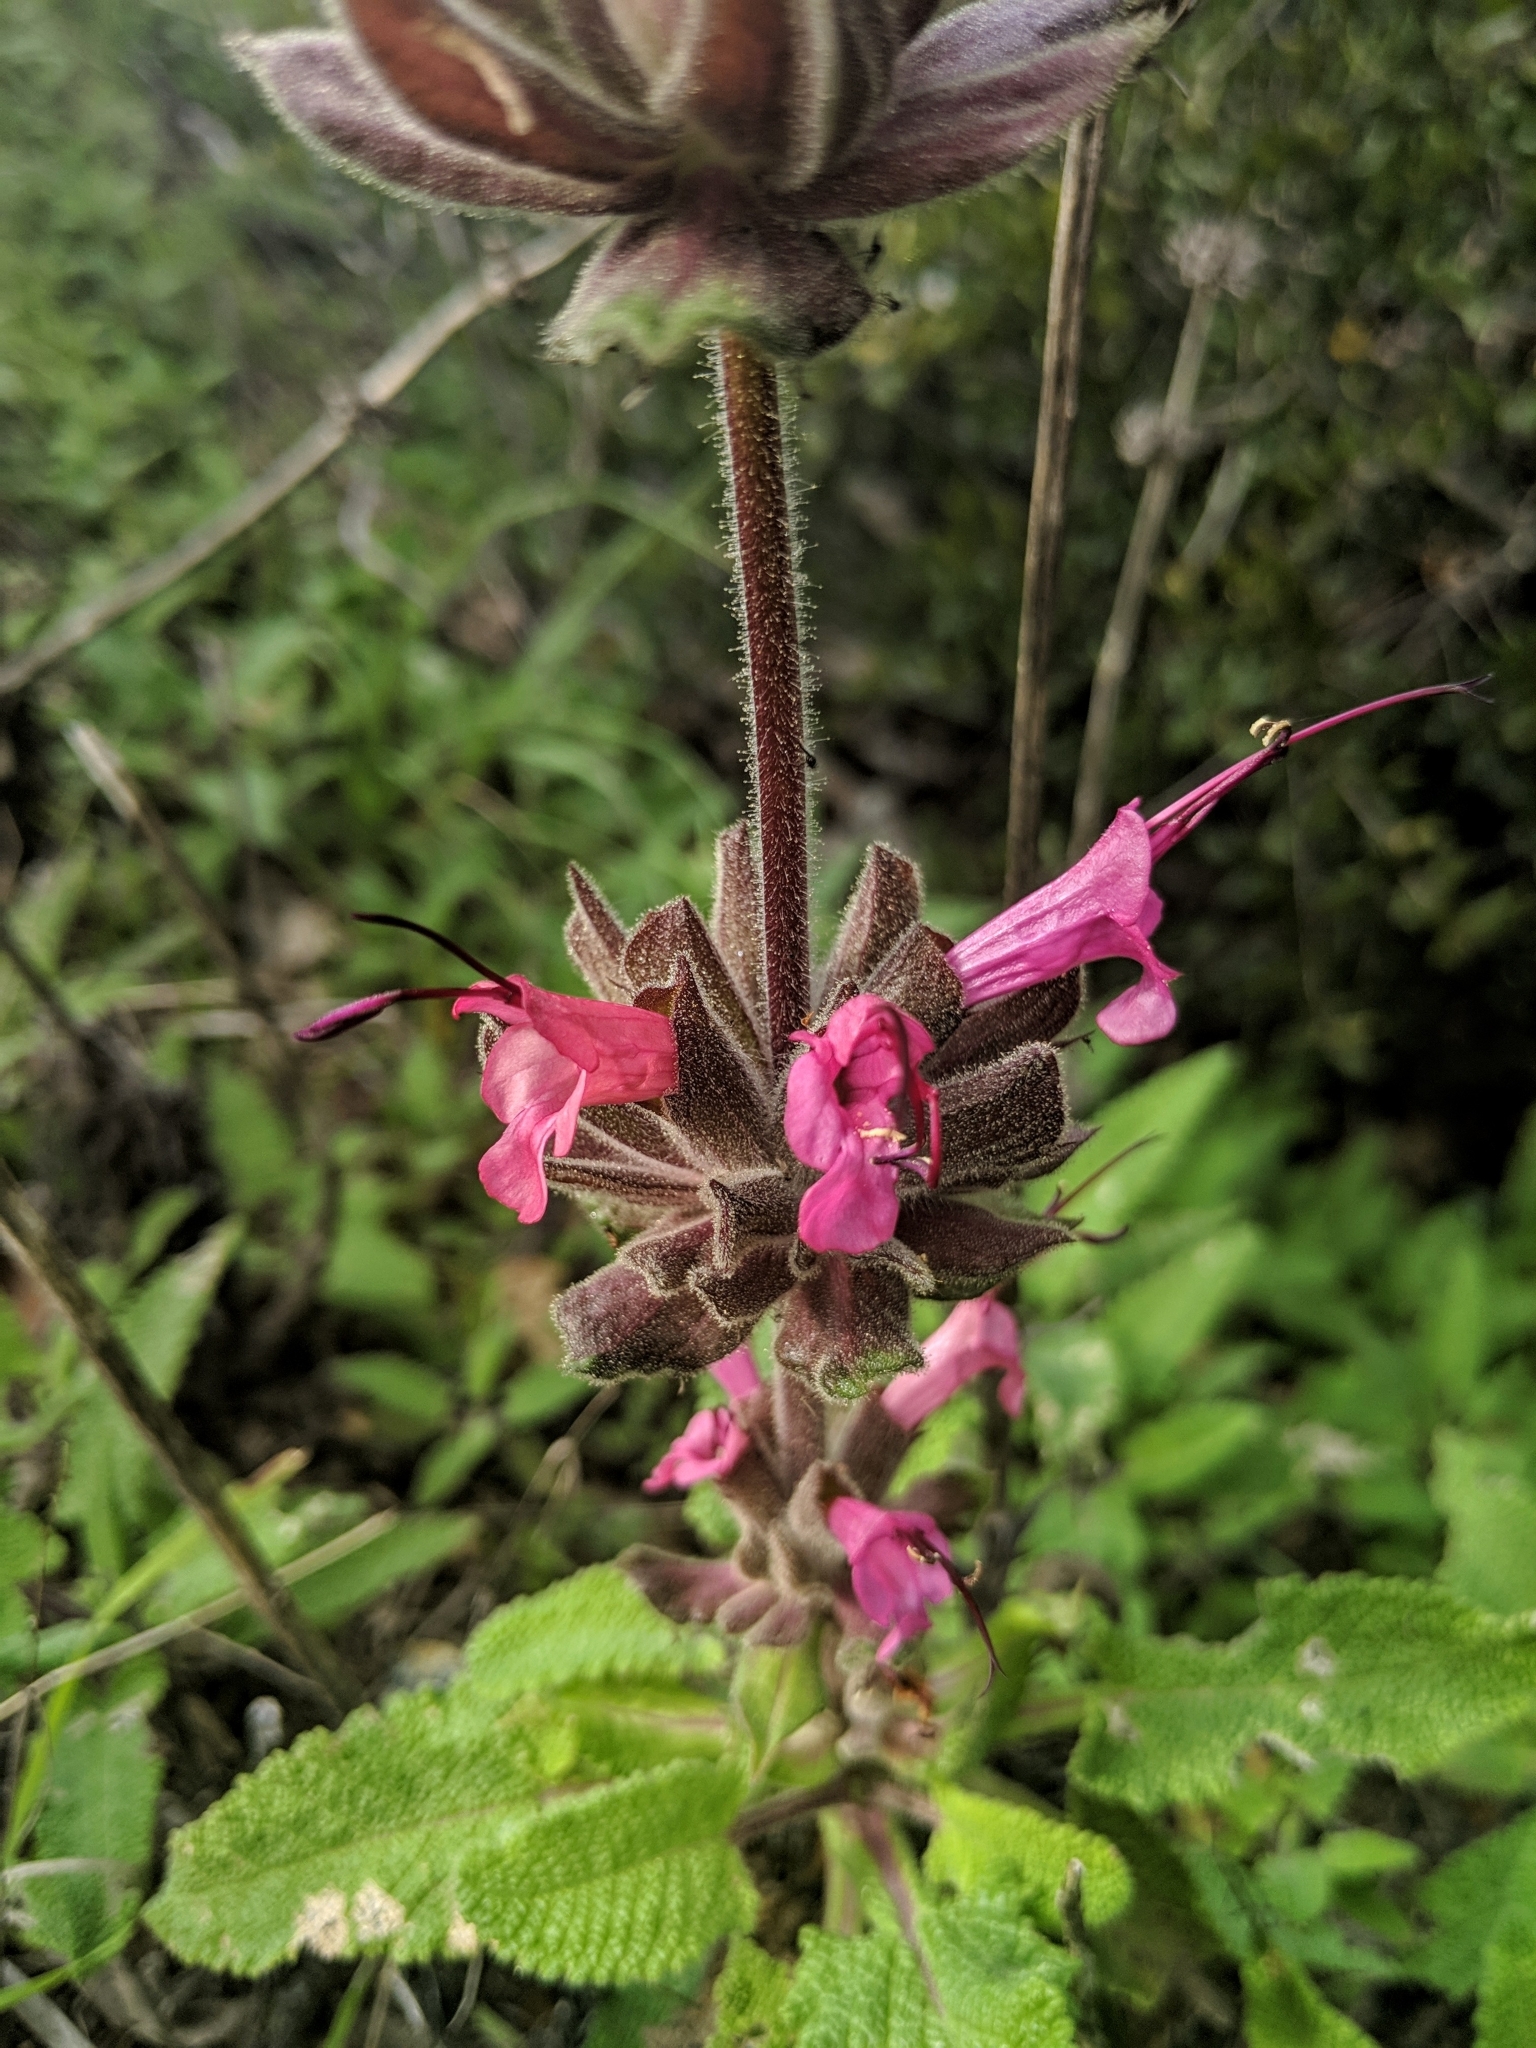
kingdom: Plantae
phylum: Tracheophyta
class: Magnoliopsida
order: Lamiales
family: Lamiaceae
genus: Salvia
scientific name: Salvia spathacea
